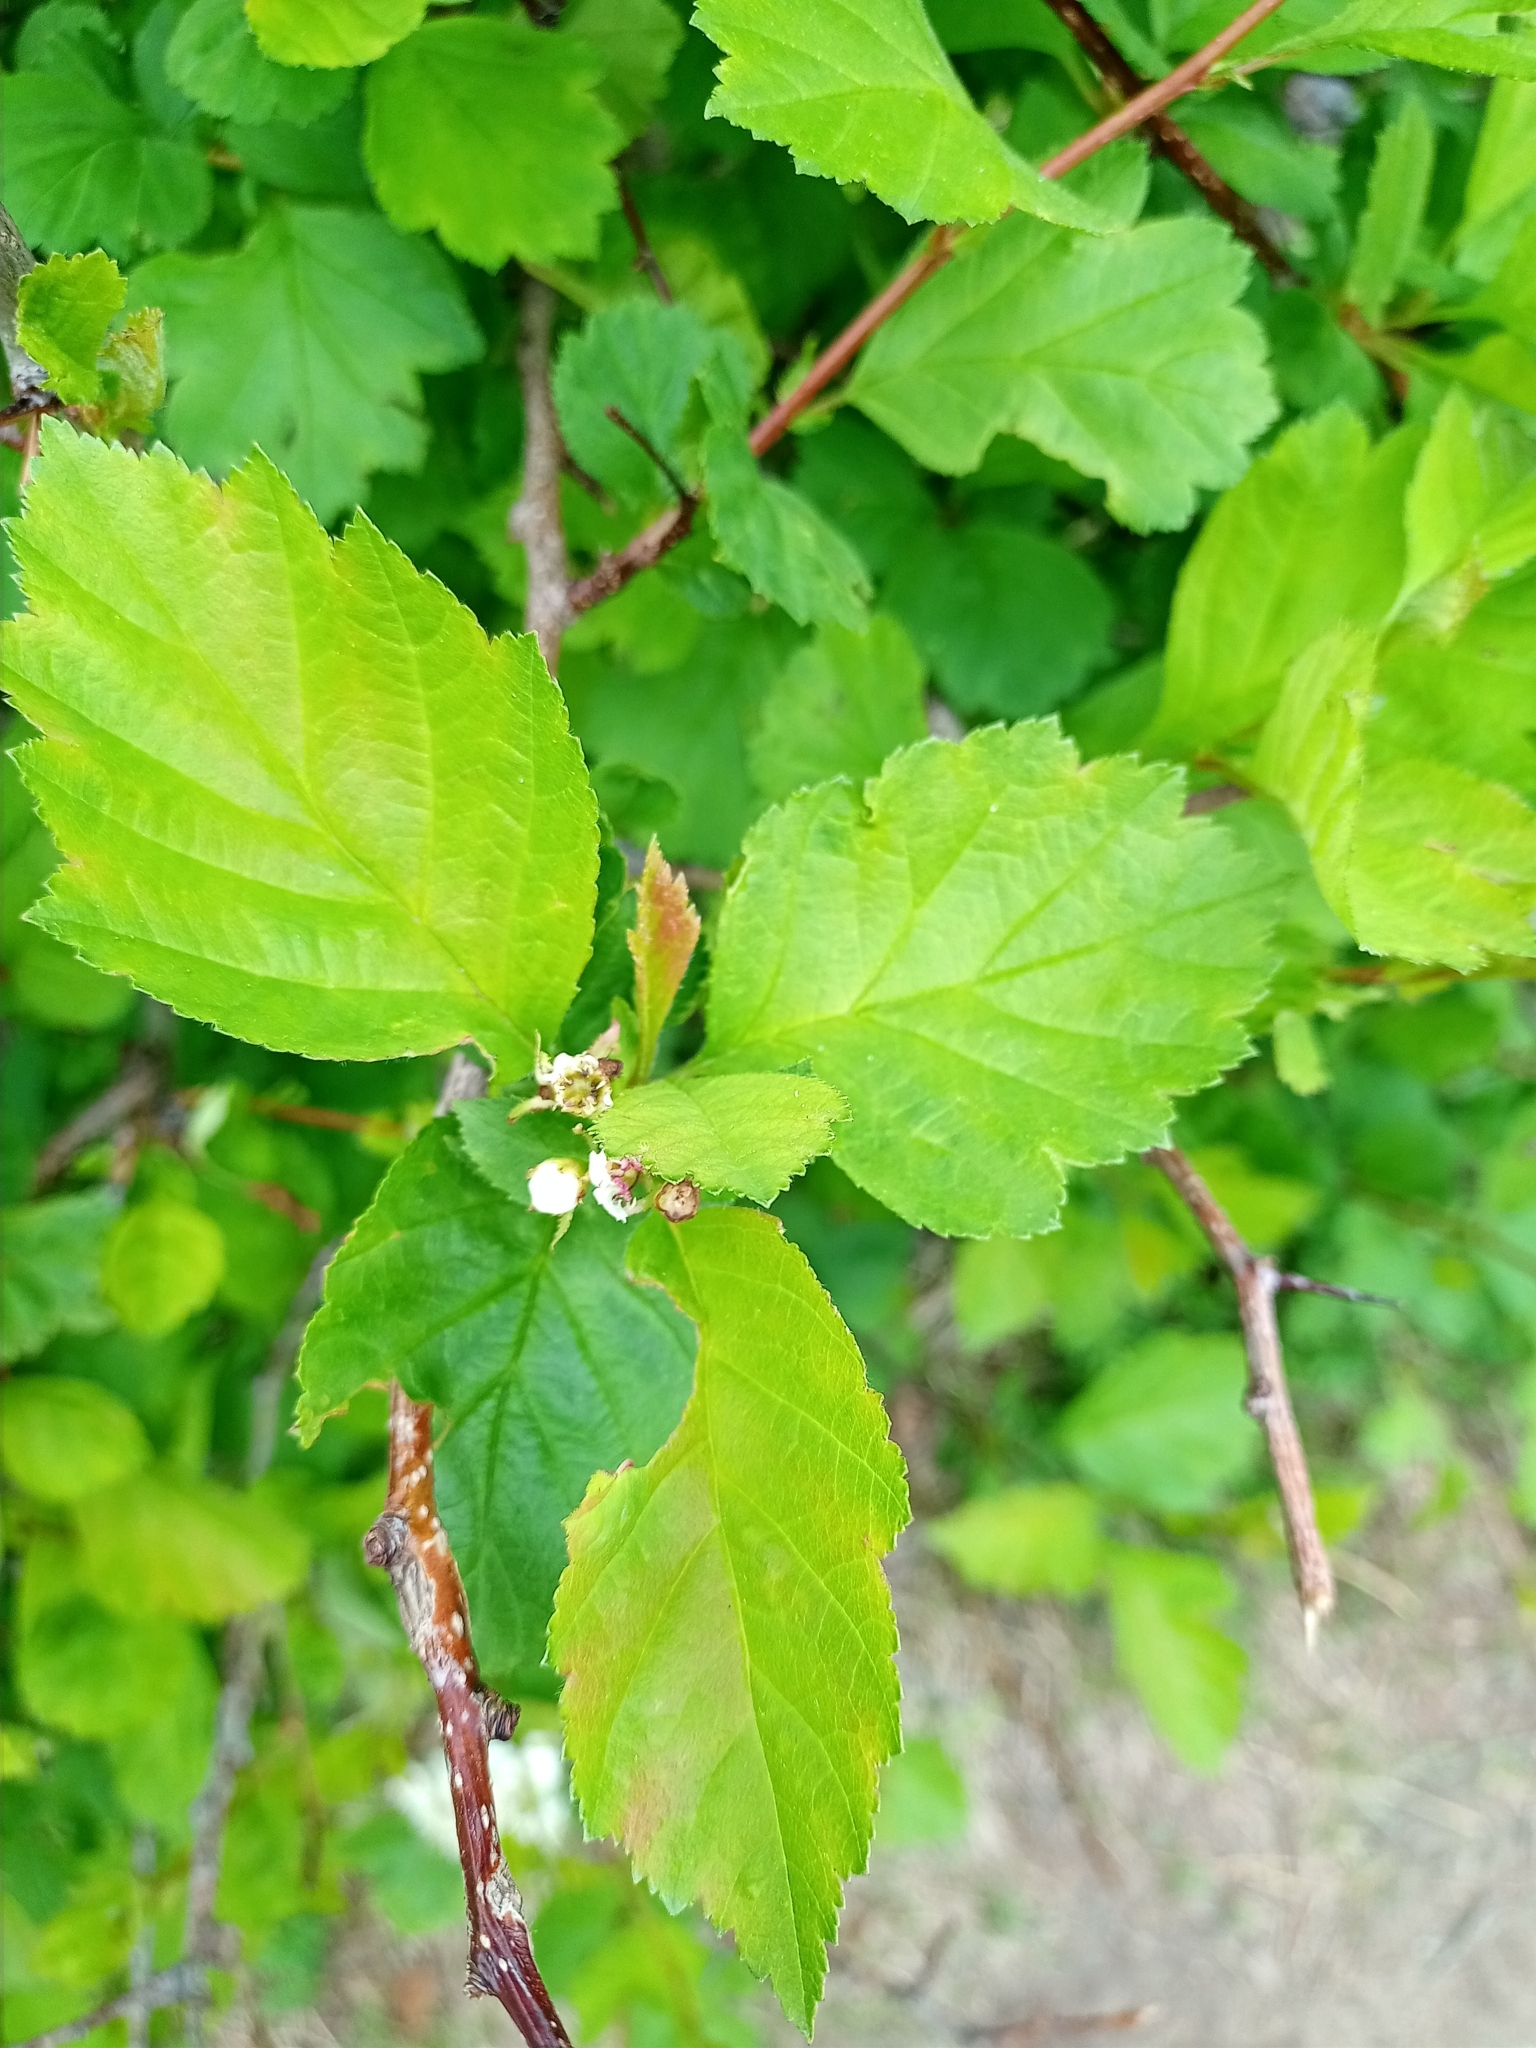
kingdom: Plantae
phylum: Tracheophyta
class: Magnoliopsida
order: Rosales
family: Rosaceae
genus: Crataegus
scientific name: Crataegus sanguinea
